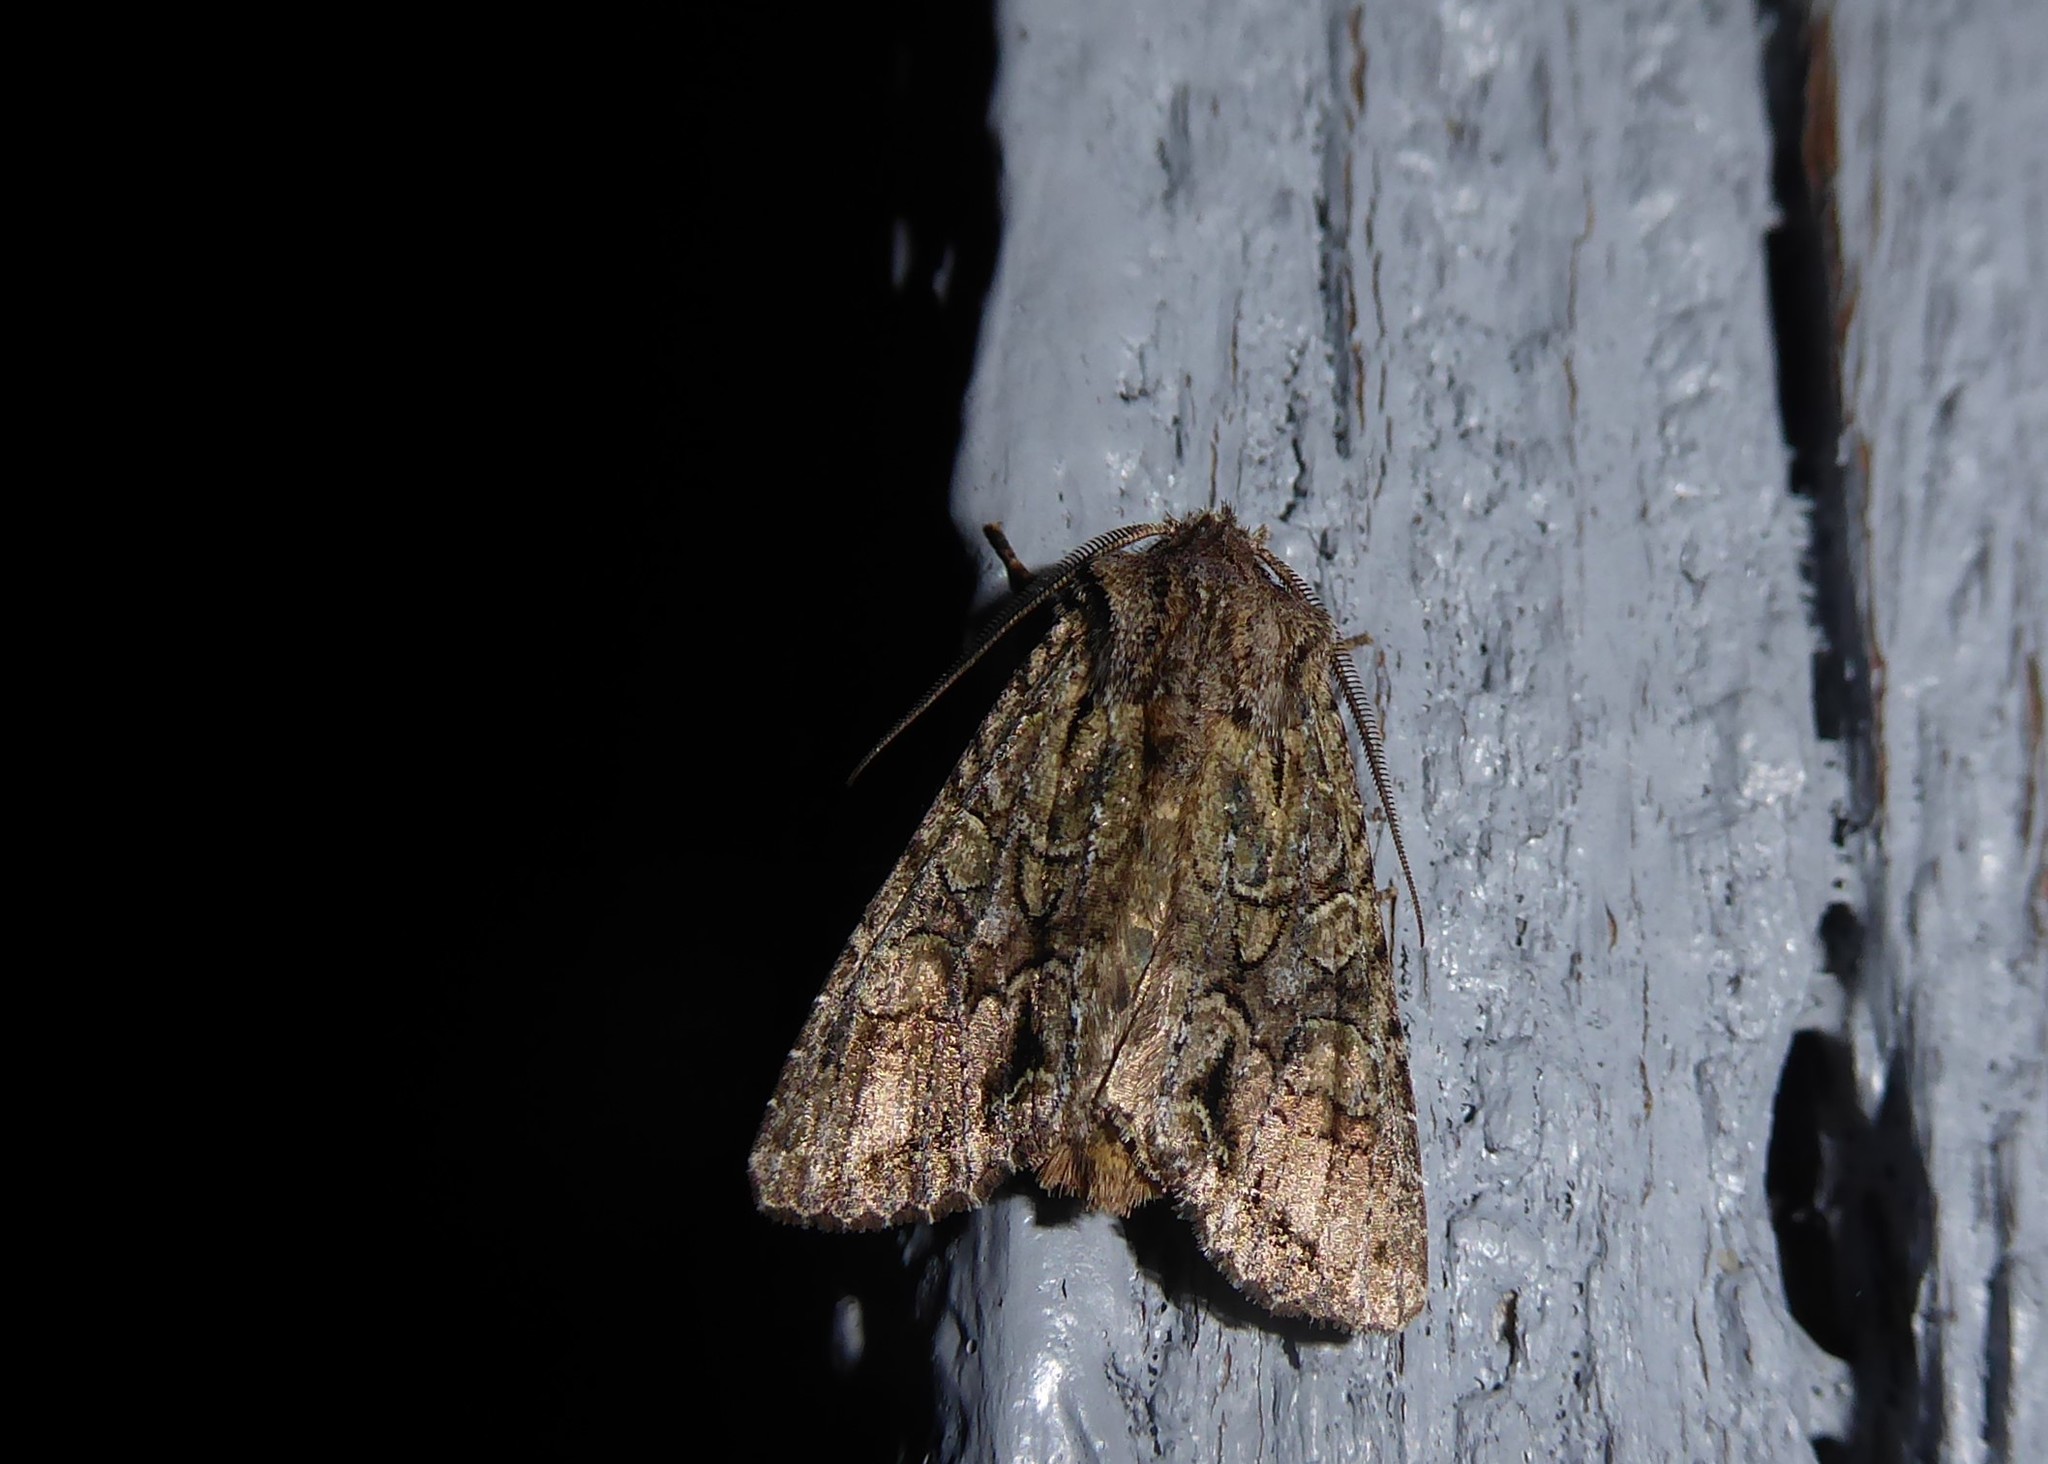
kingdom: Animalia
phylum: Arthropoda
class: Insecta
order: Lepidoptera
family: Noctuidae
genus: Ichneutica
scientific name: Ichneutica mutans
